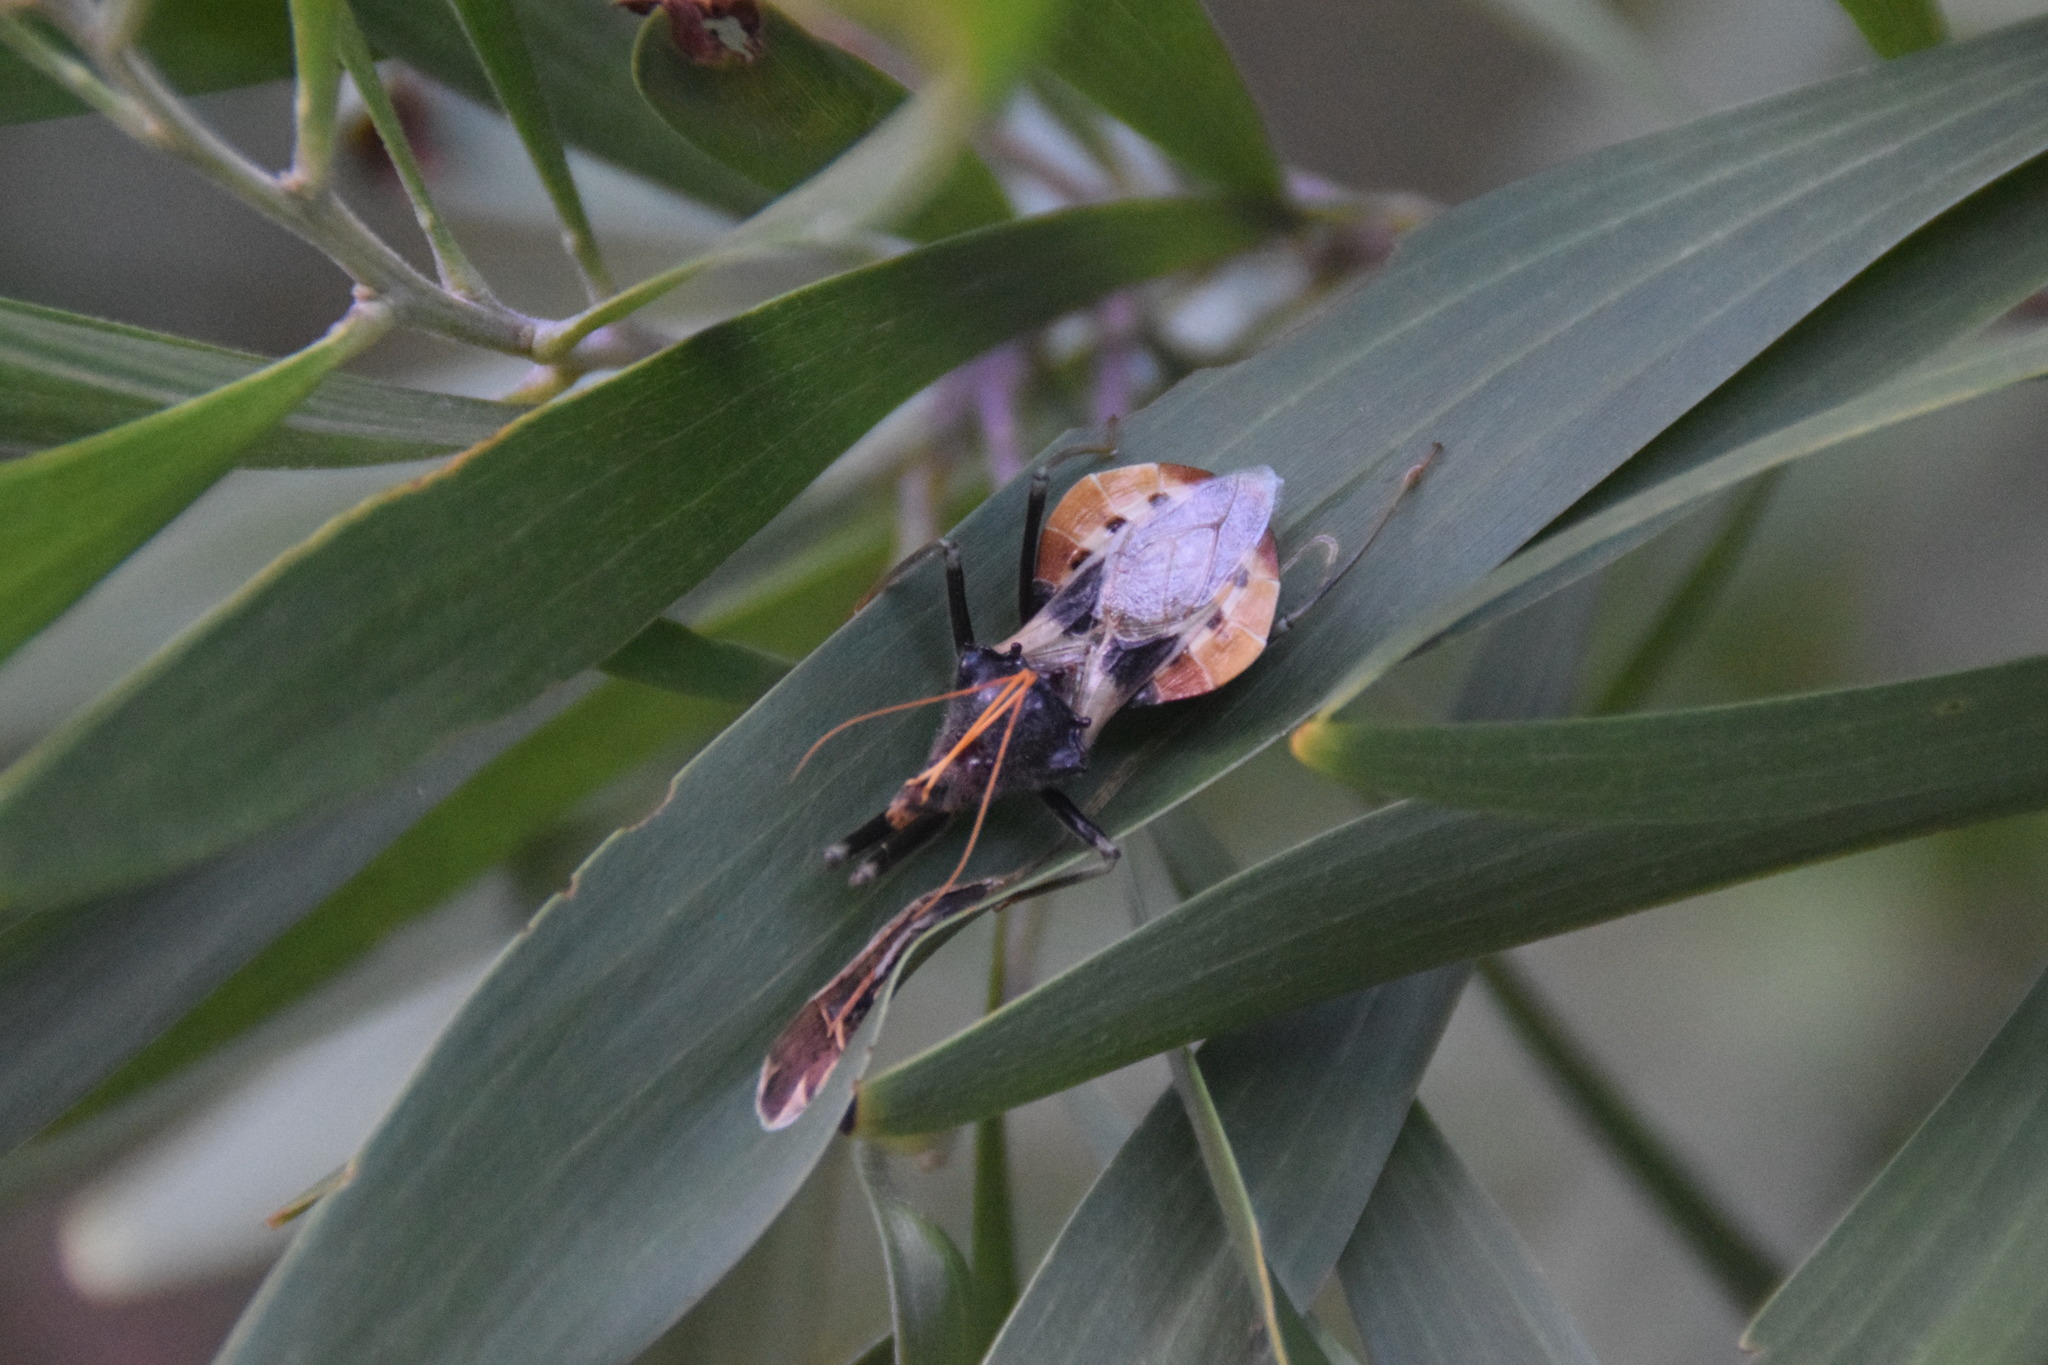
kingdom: Animalia
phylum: Arthropoda
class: Insecta
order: Hemiptera
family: Reduviidae
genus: Pristhesancus
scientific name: Pristhesancus plagipennis
